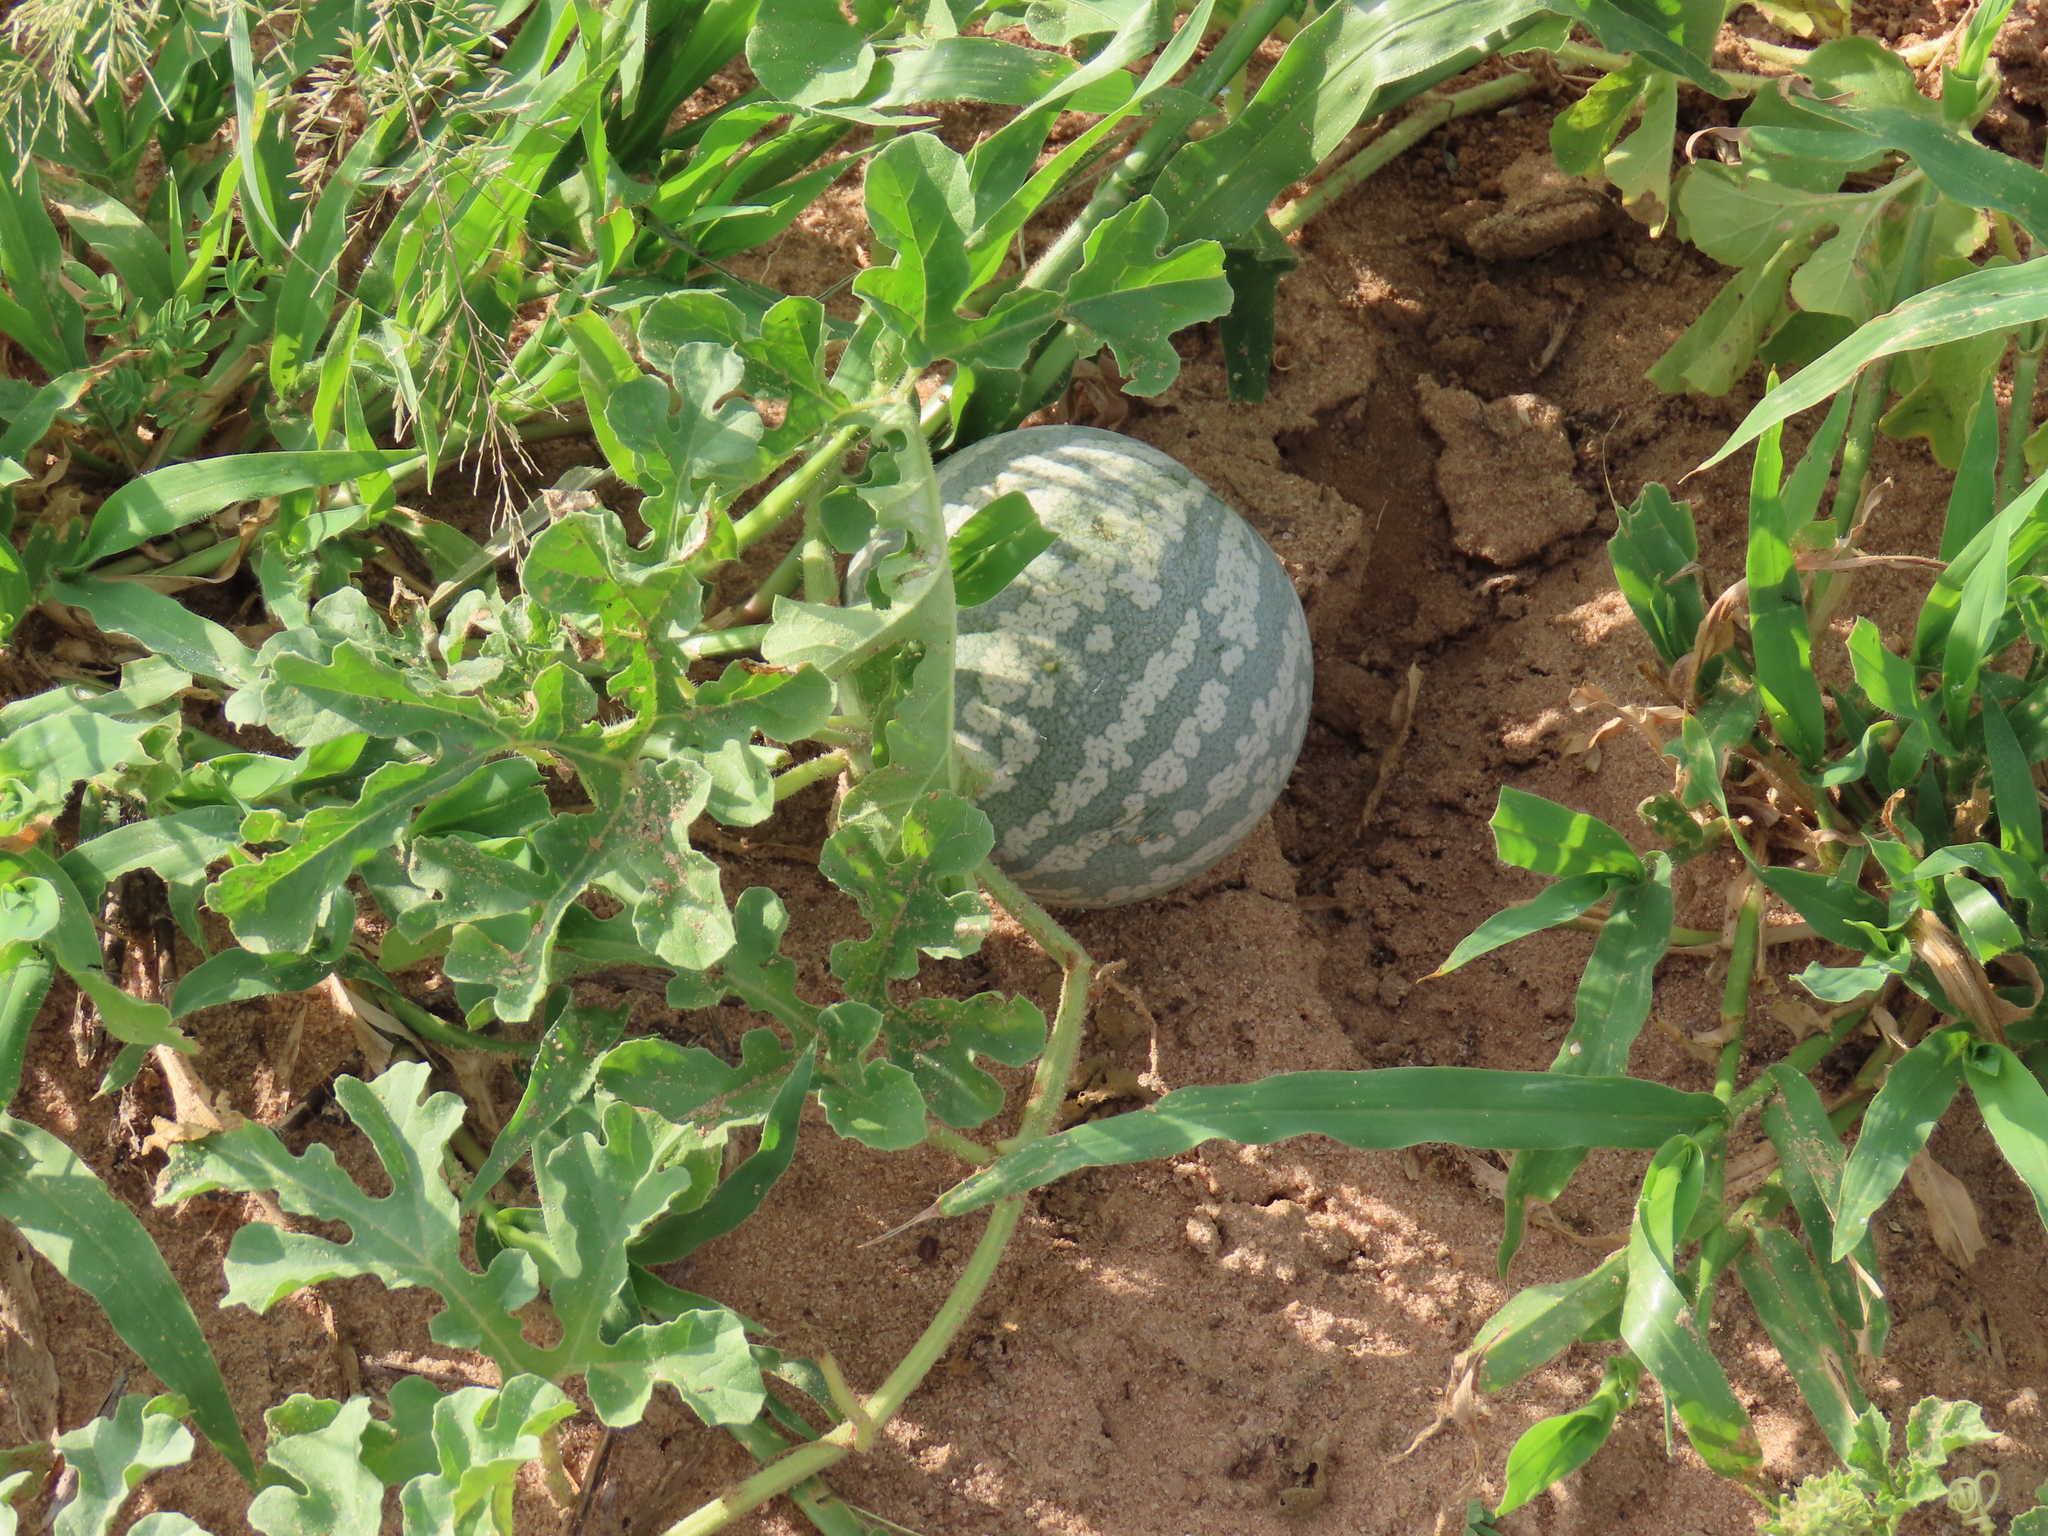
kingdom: Plantae
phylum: Tracheophyta
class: Magnoliopsida
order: Cucurbitales
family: Cucurbitaceae
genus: Citrullus
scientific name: Citrullus amarus
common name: Fodder-melon
